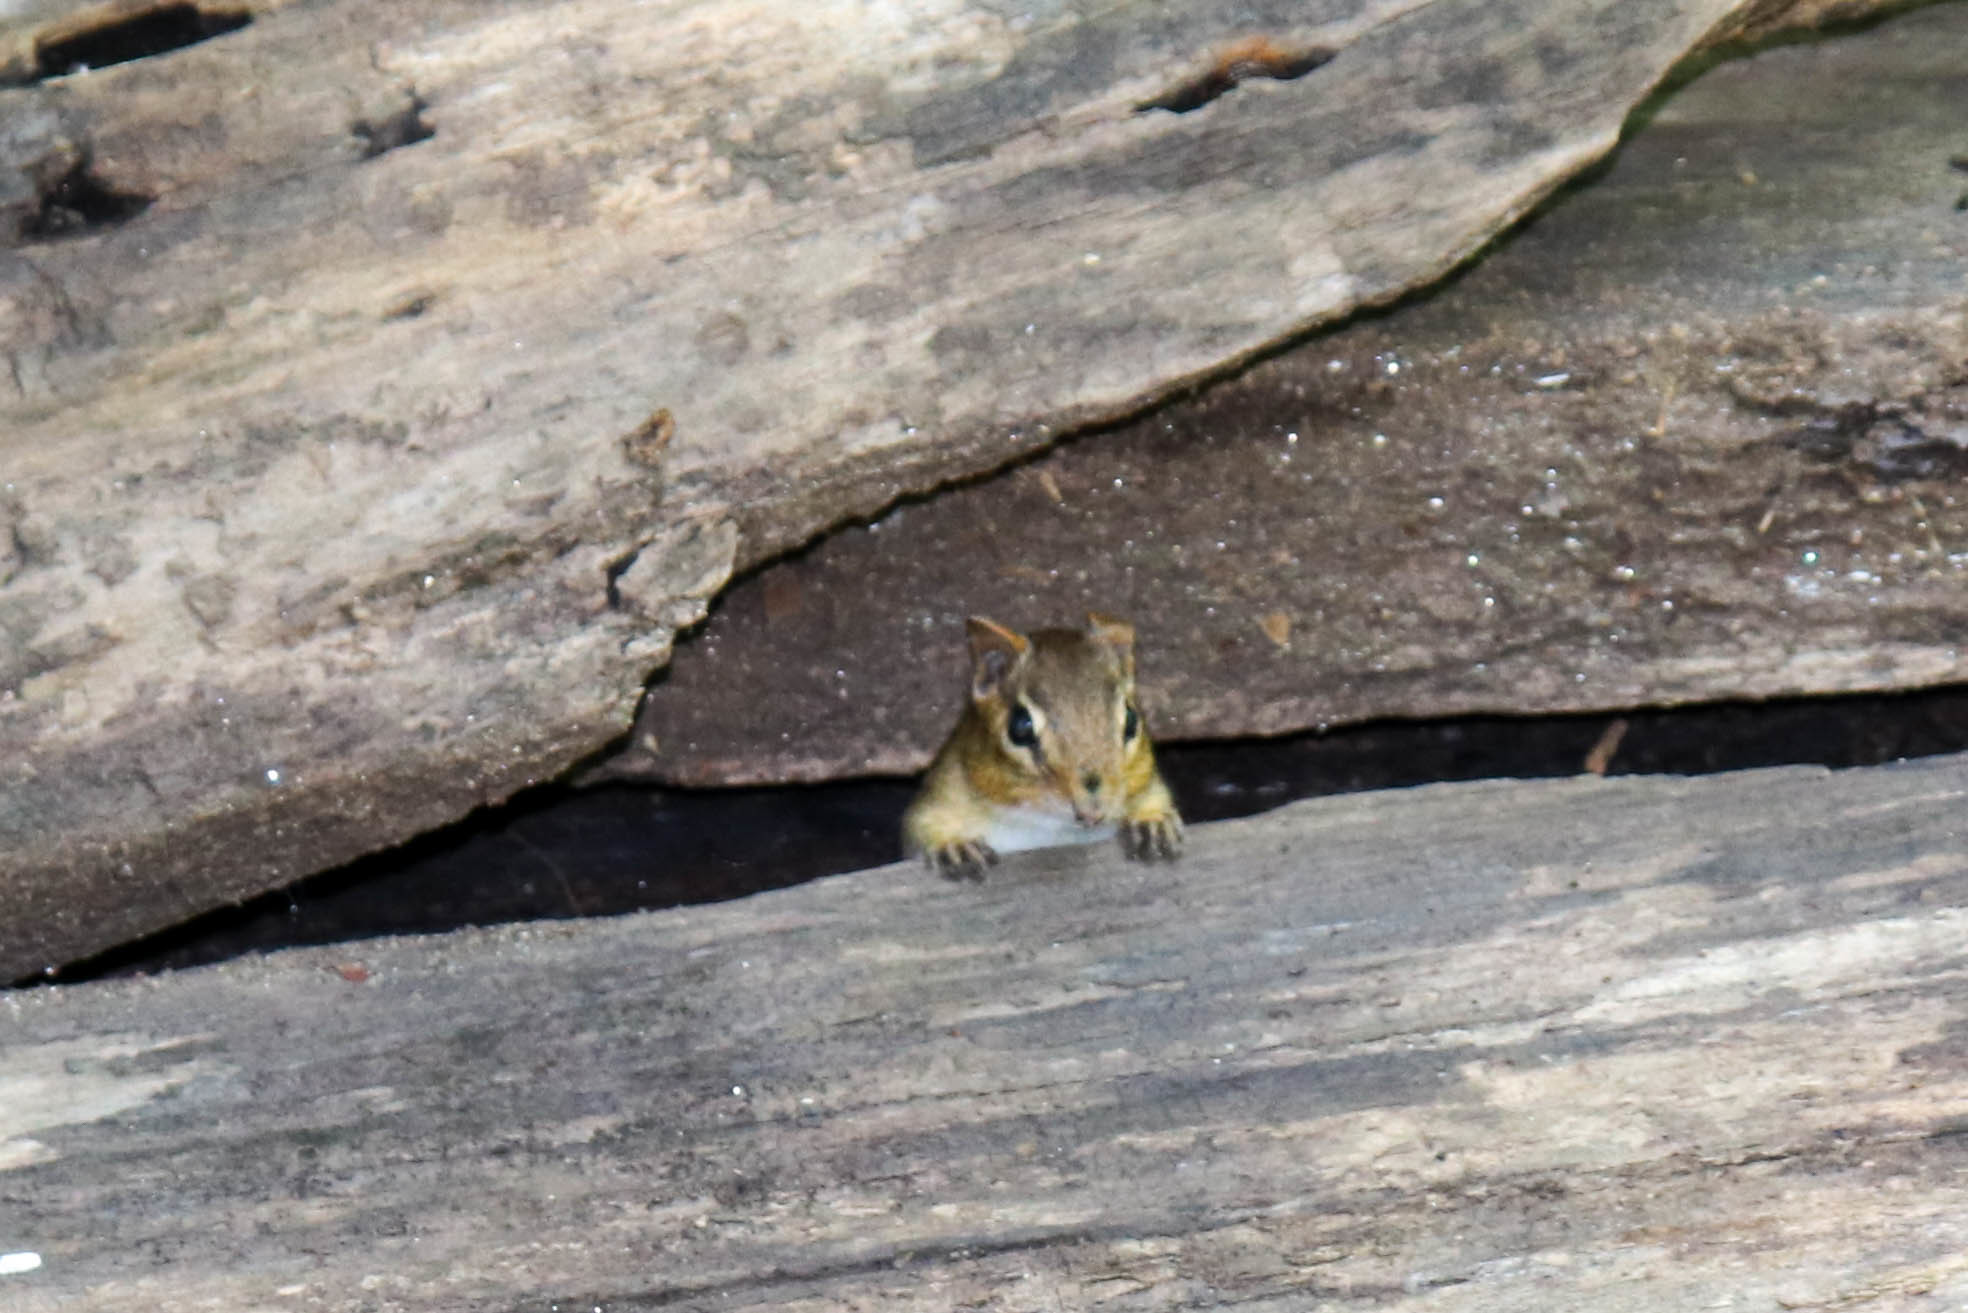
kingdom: Animalia
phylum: Chordata
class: Mammalia
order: Rodentia
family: Sciuridae
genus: Tamias
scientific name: Tamias striatus
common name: Eastern chipmunk
